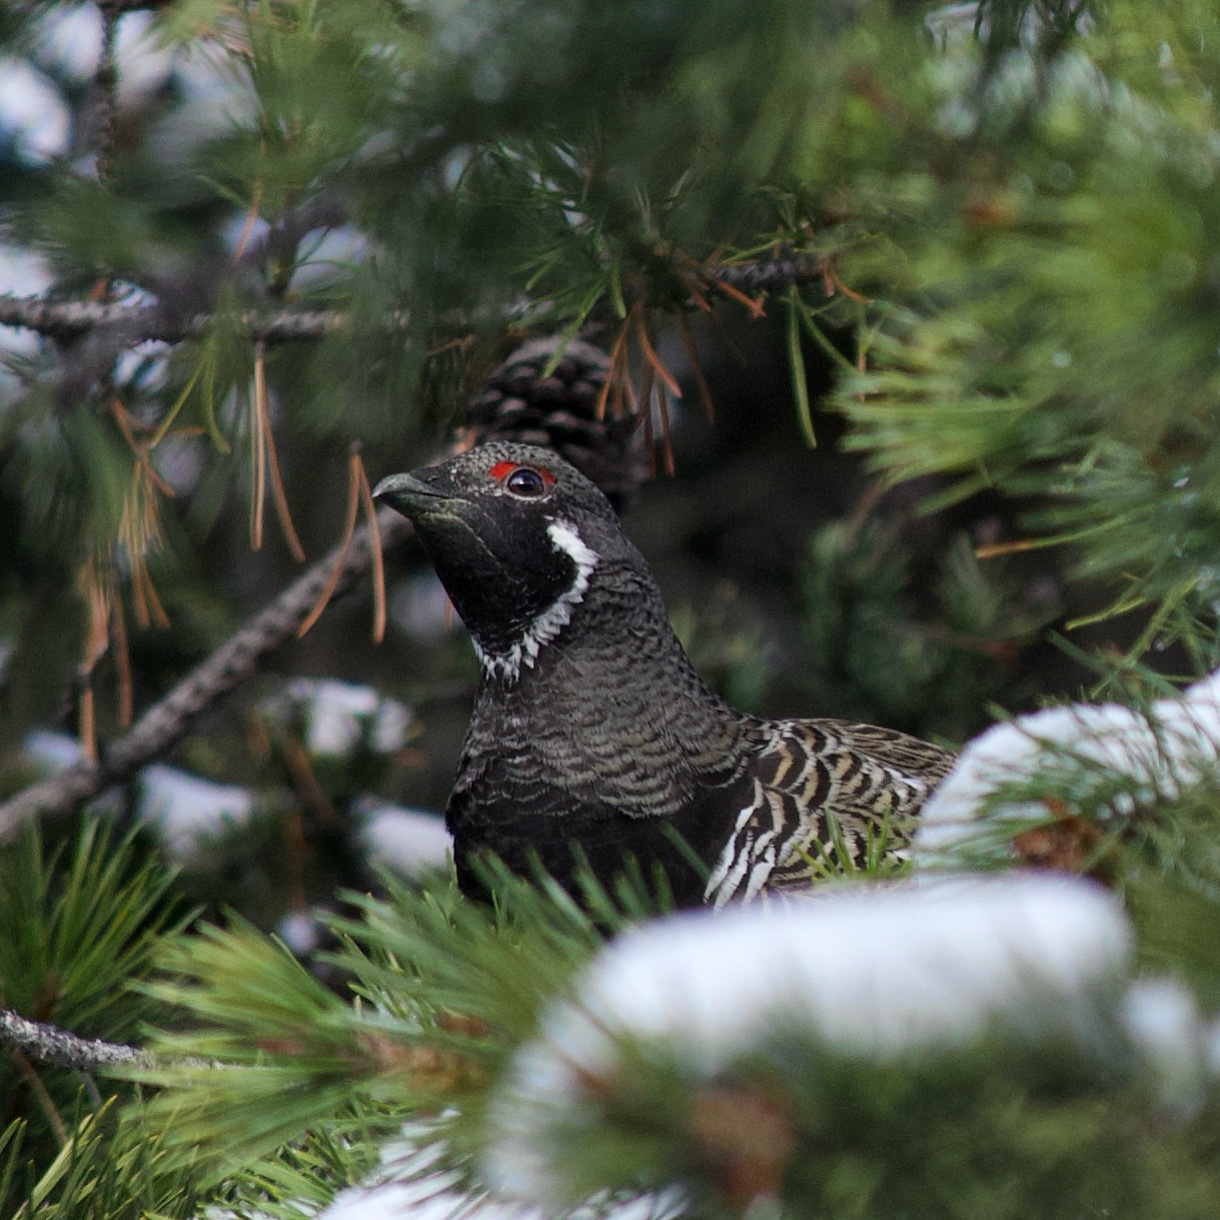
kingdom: Animalia
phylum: Chordata
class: Aves
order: Galliformes
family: Phasianidae
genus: Canachites
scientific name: Canachites canadensis
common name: Spruce grouse
